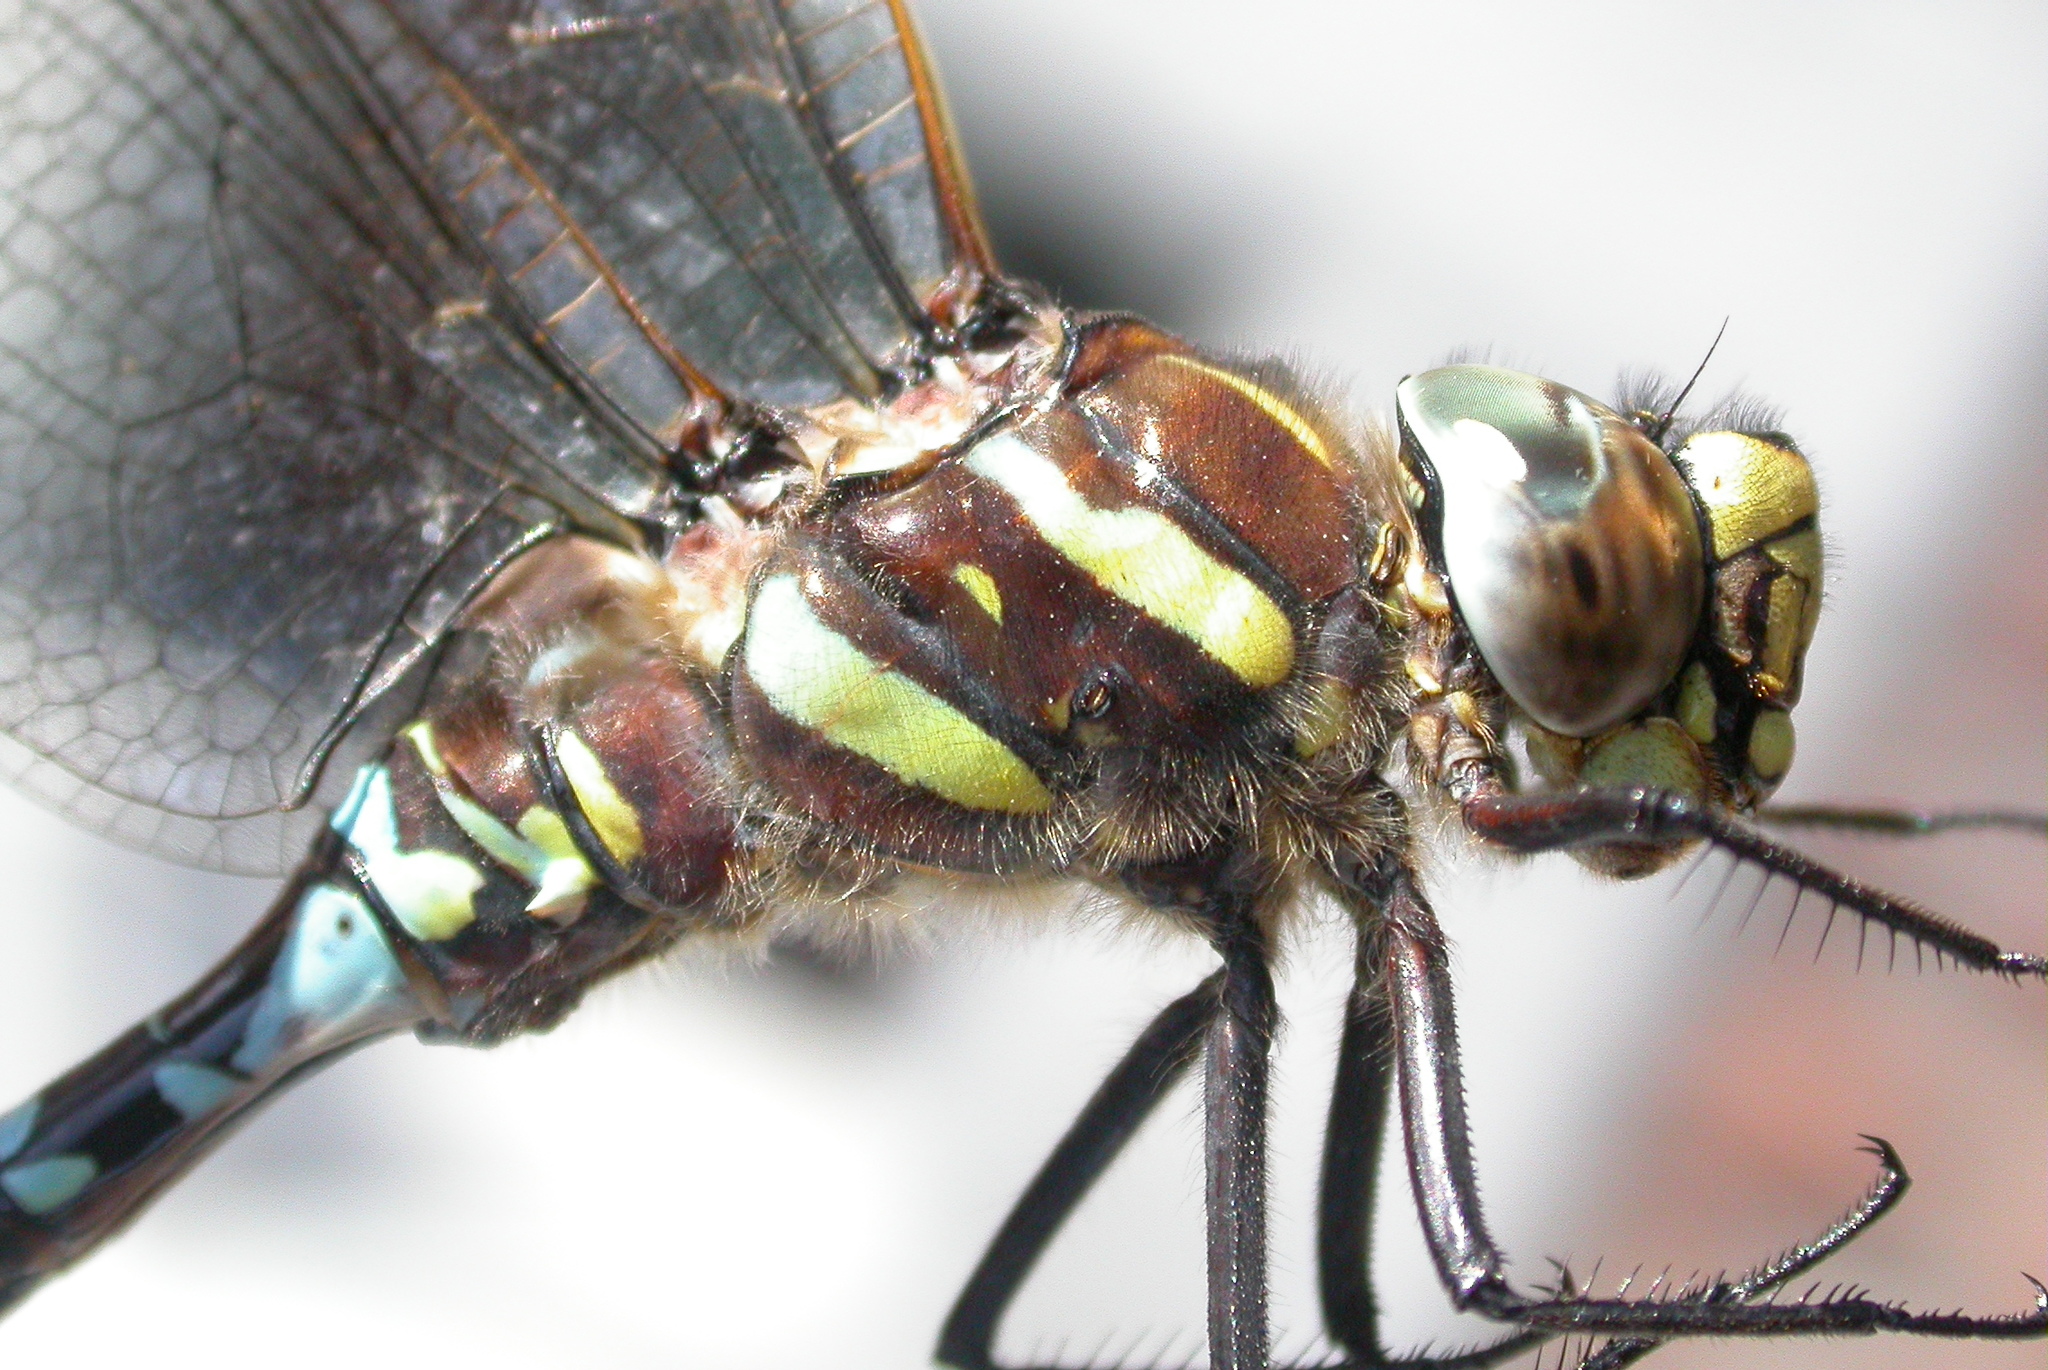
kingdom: Animalia
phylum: Arthropoda
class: Insecta
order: Odonata
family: Aeshnidae
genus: Aeshna
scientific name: Aeshna juncea
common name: Moorland hawker
